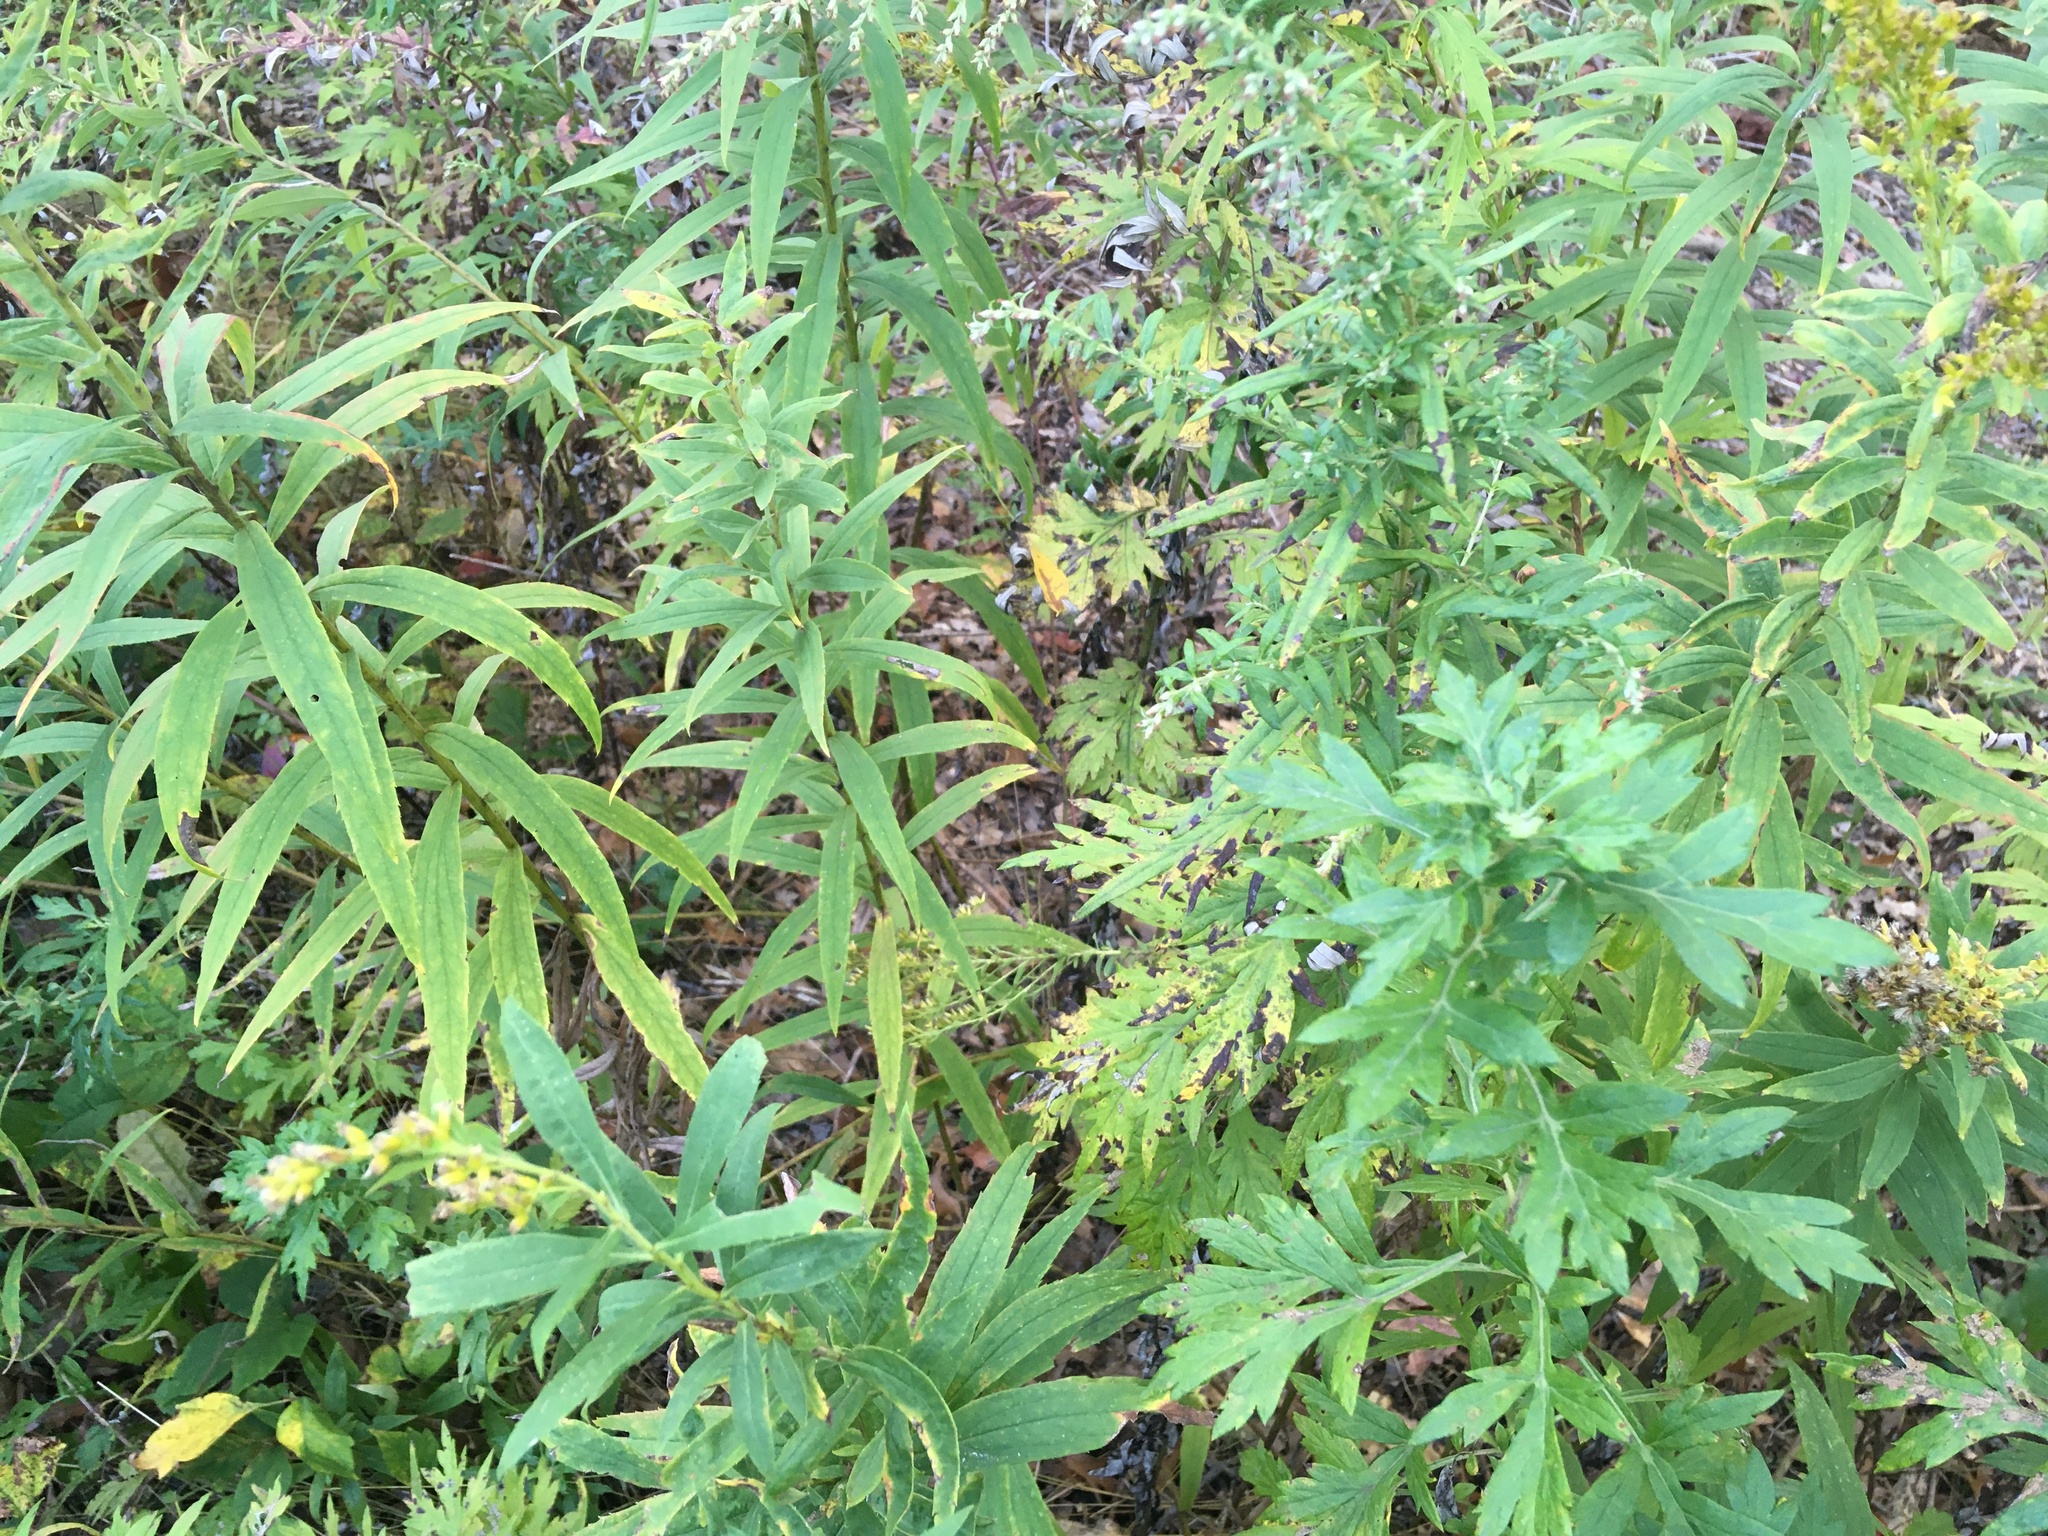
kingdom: Plantae
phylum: Tracheophyta
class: Magnoliopsida
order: Asterales
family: Asteraceae
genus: Artemisia
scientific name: Artemisia vulgaris
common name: Mugwort
